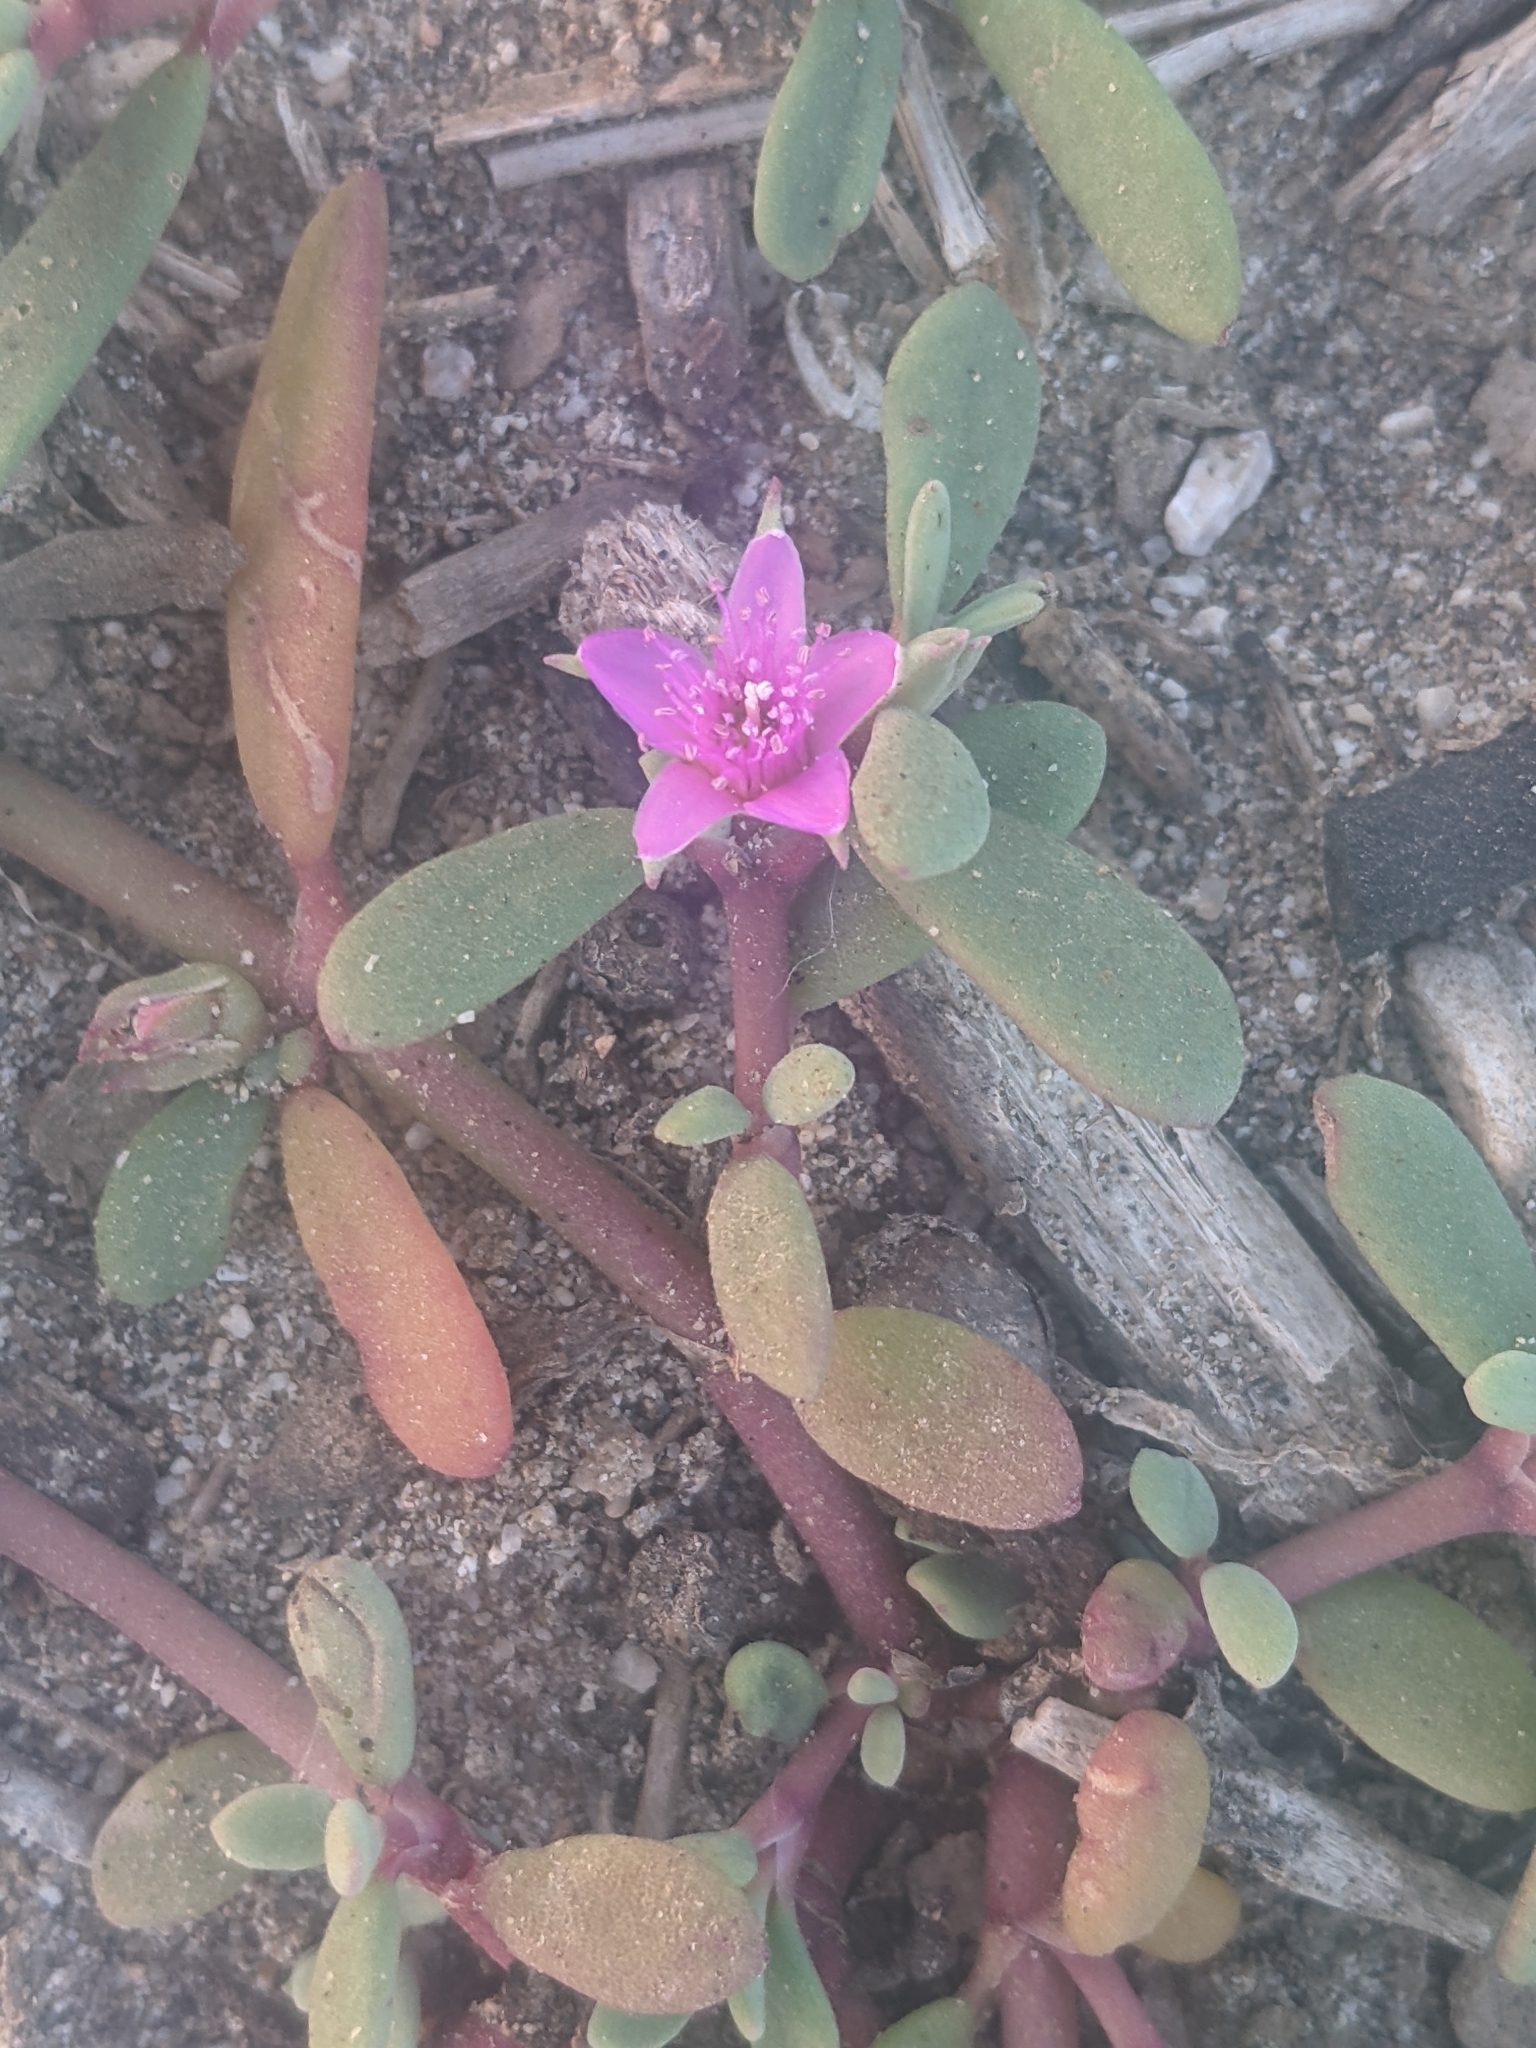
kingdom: Plantae
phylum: Tracheophyta
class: Magnoliopsida
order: Caryophyllales
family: Aizoaceae
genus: Sesuvium
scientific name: Sesuvium portulacastrum
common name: Sea-purslane
